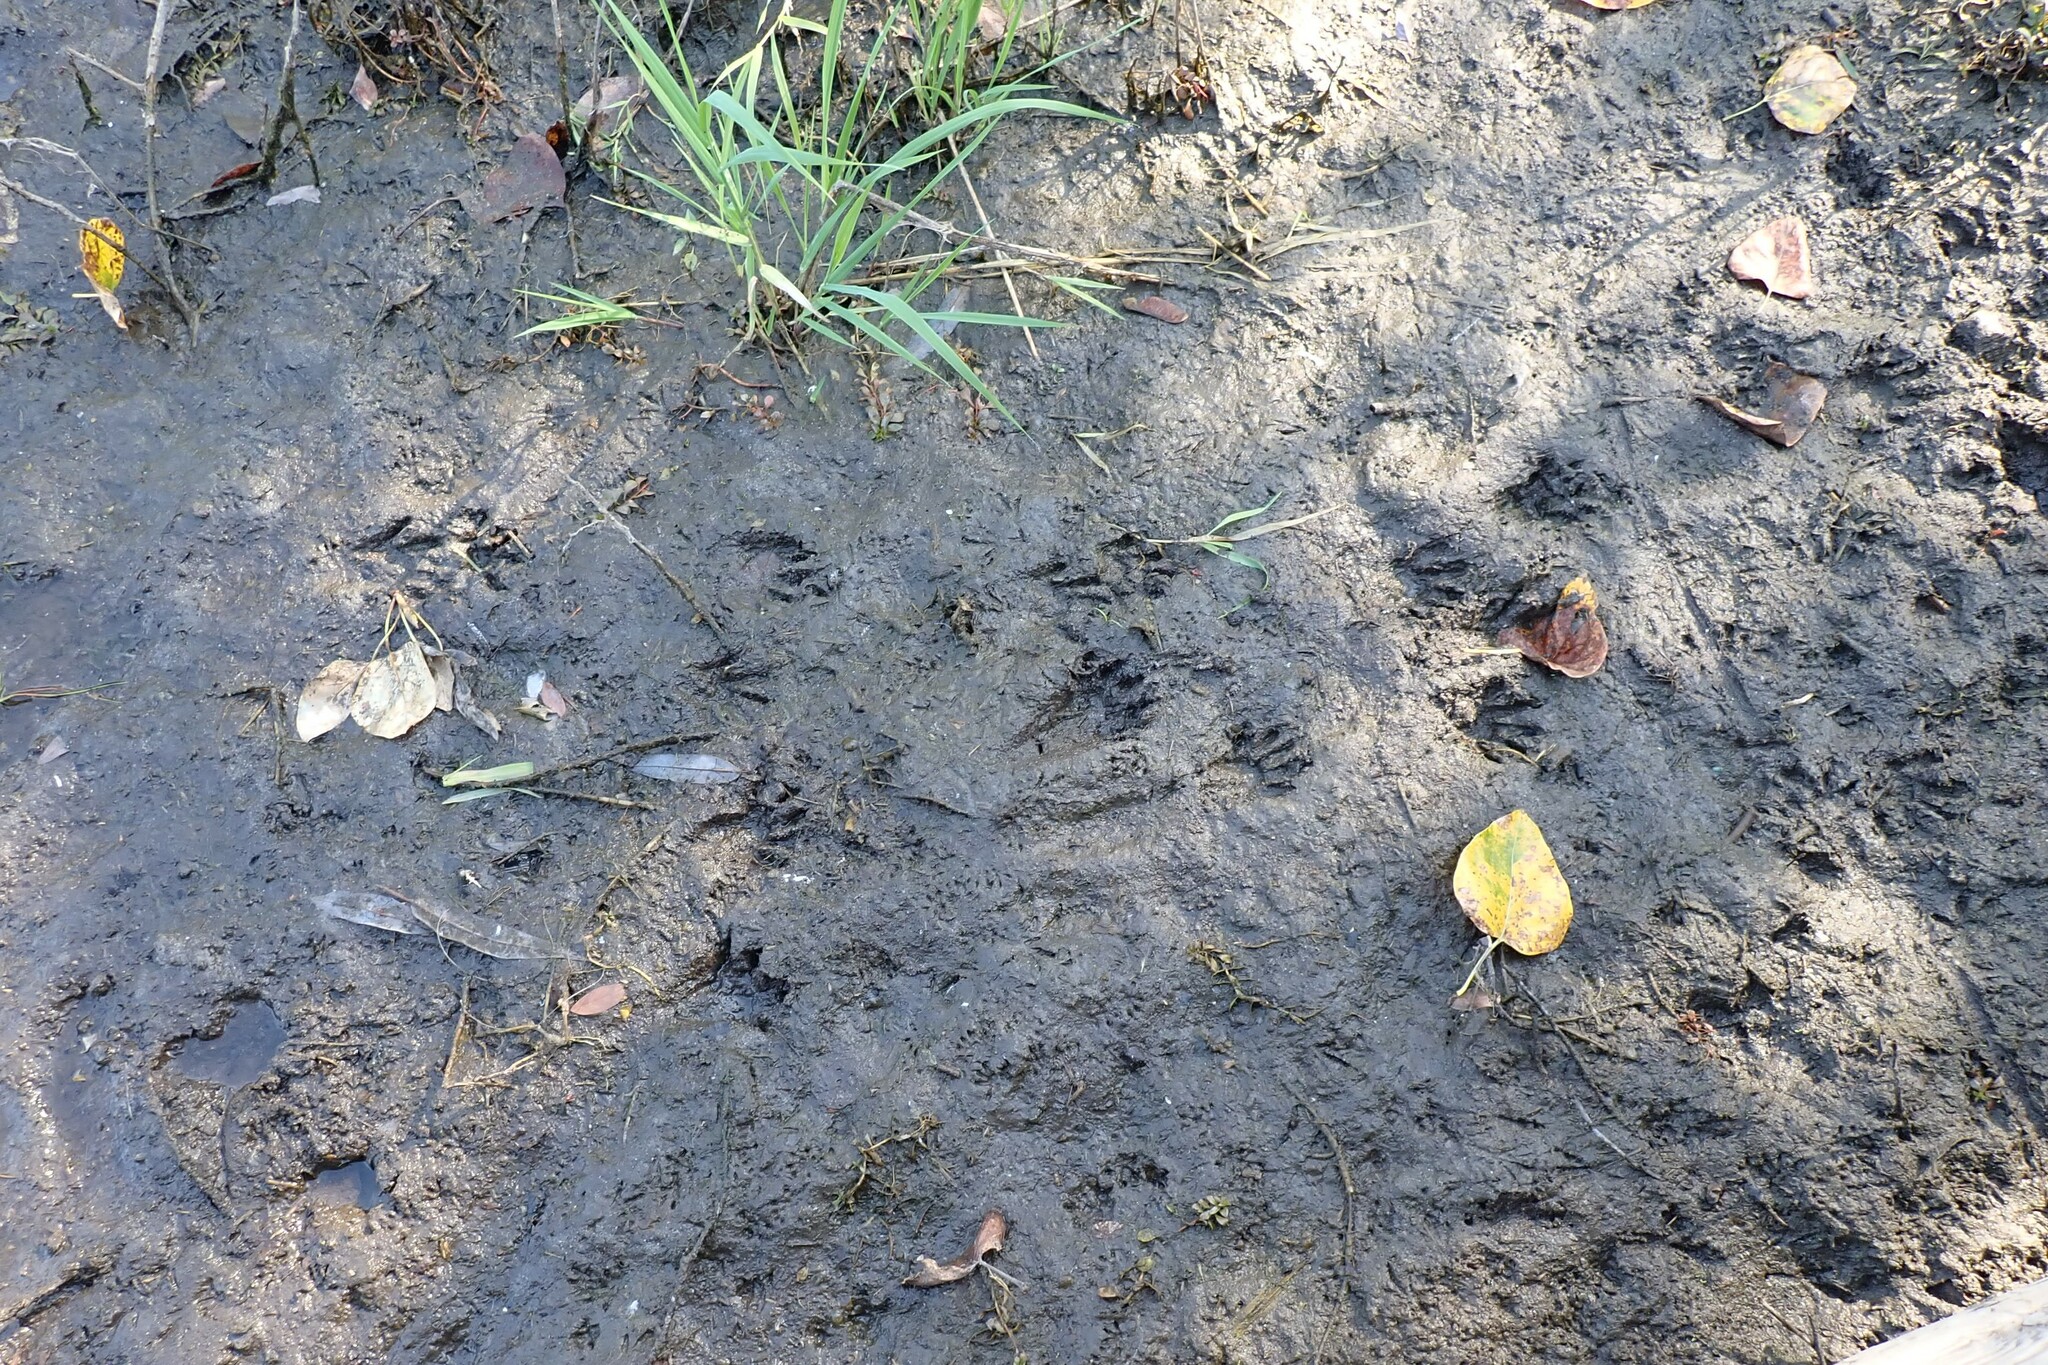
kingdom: Animalia
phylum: Chordata
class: Mammalia
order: Carnivora
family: Procyonidae
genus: Procyon
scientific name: Procyon lotor
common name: Raccoon
